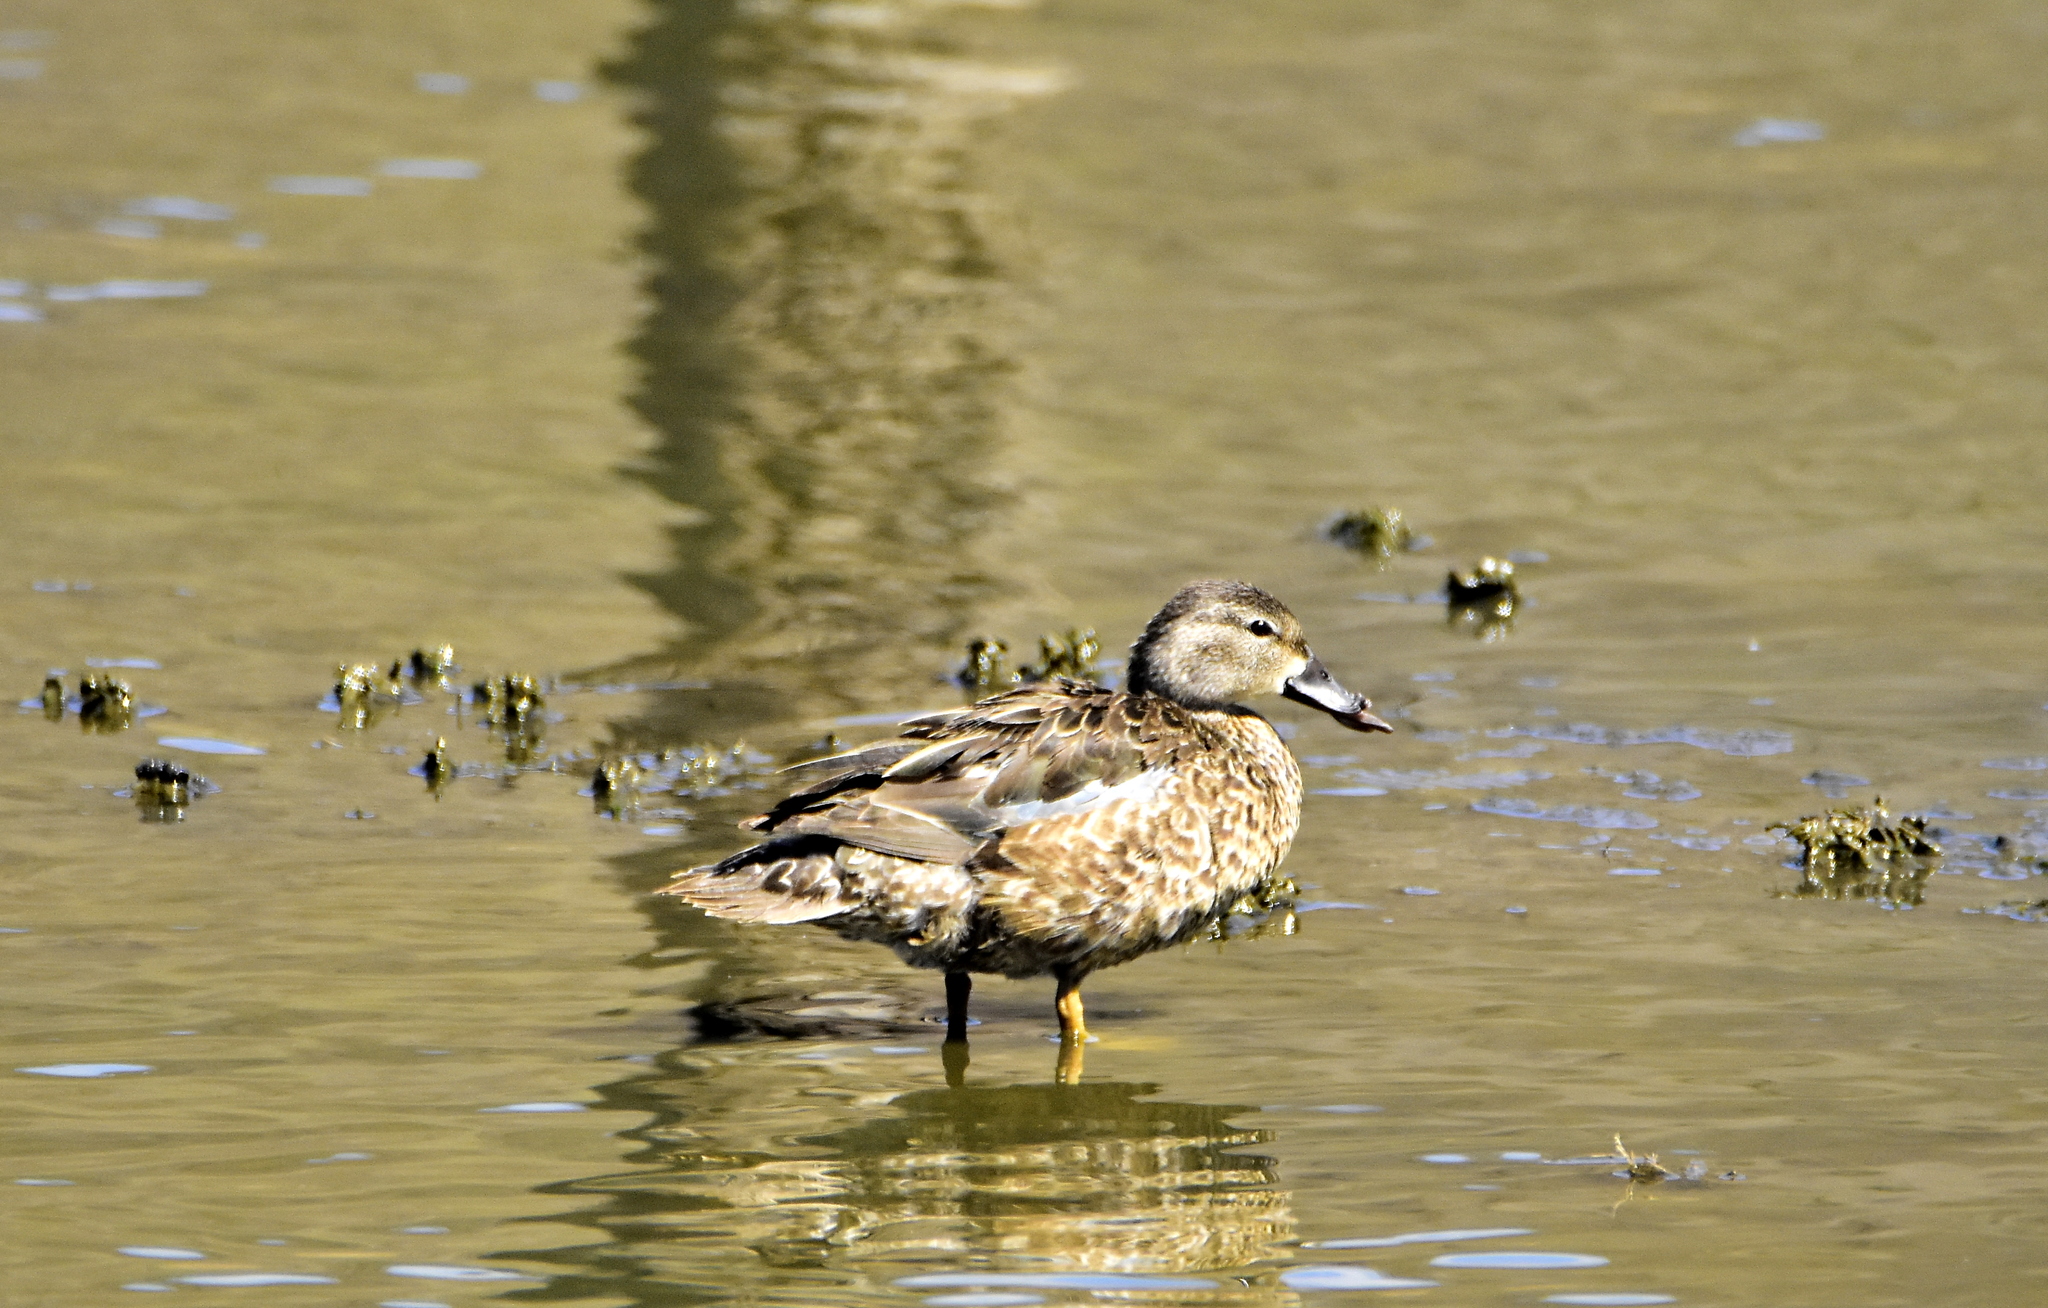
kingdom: Animalia
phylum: Chordata
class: Aves
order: Anseriformes
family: Anatidae
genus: Spatula
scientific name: Spatula discors
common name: Blue-winged teal
